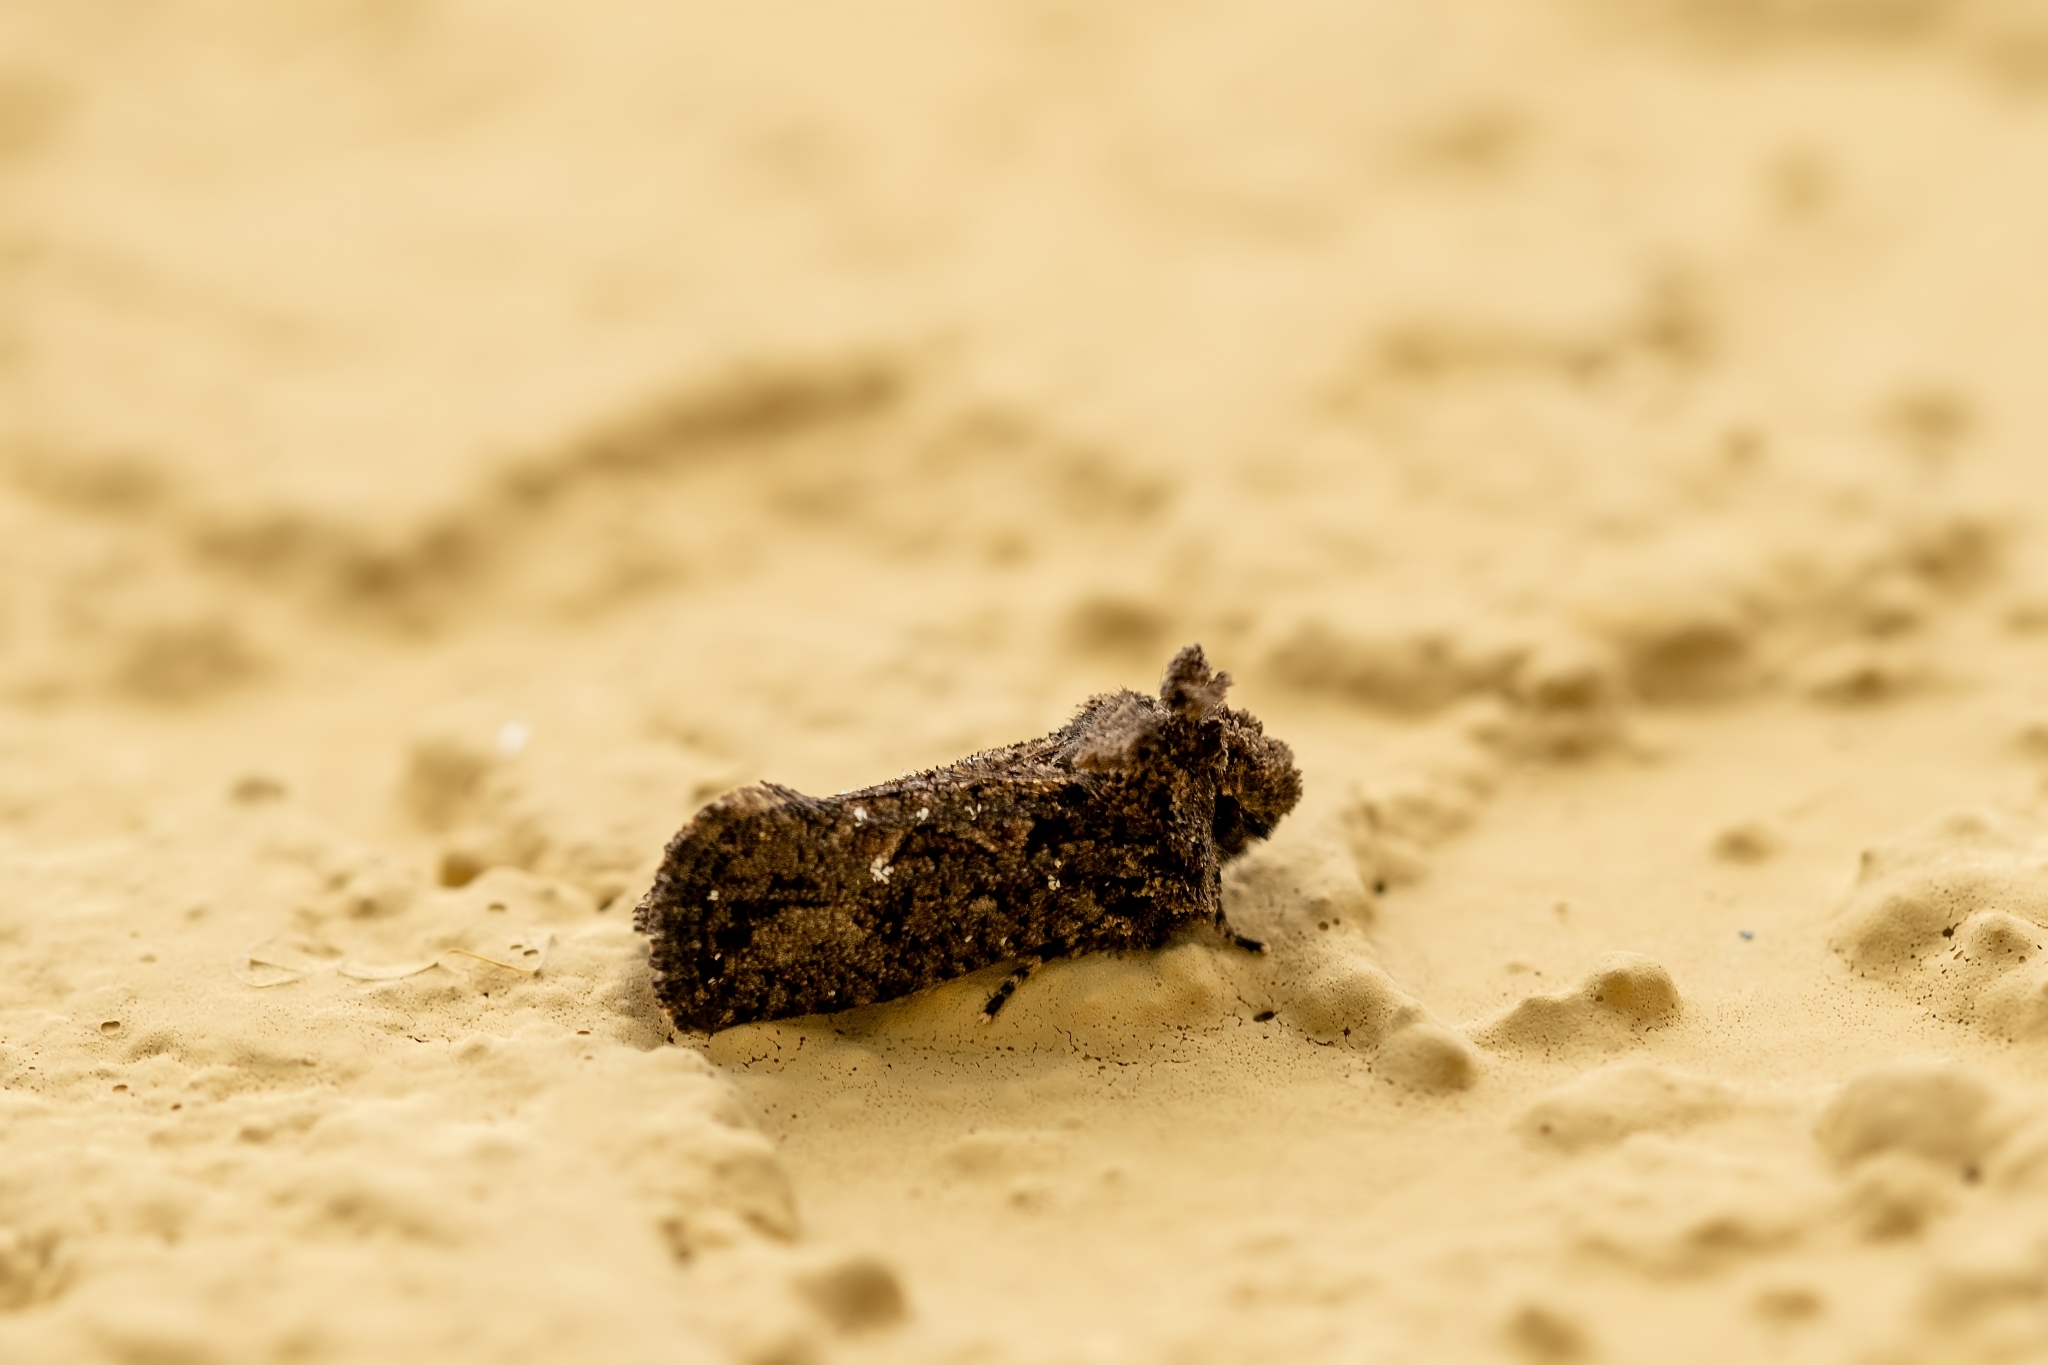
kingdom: Animalia
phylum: Arthropoda
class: Insecta
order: Lepidoptera
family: Tineidae
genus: Acrolophus
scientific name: Acrolophus walsinghami
